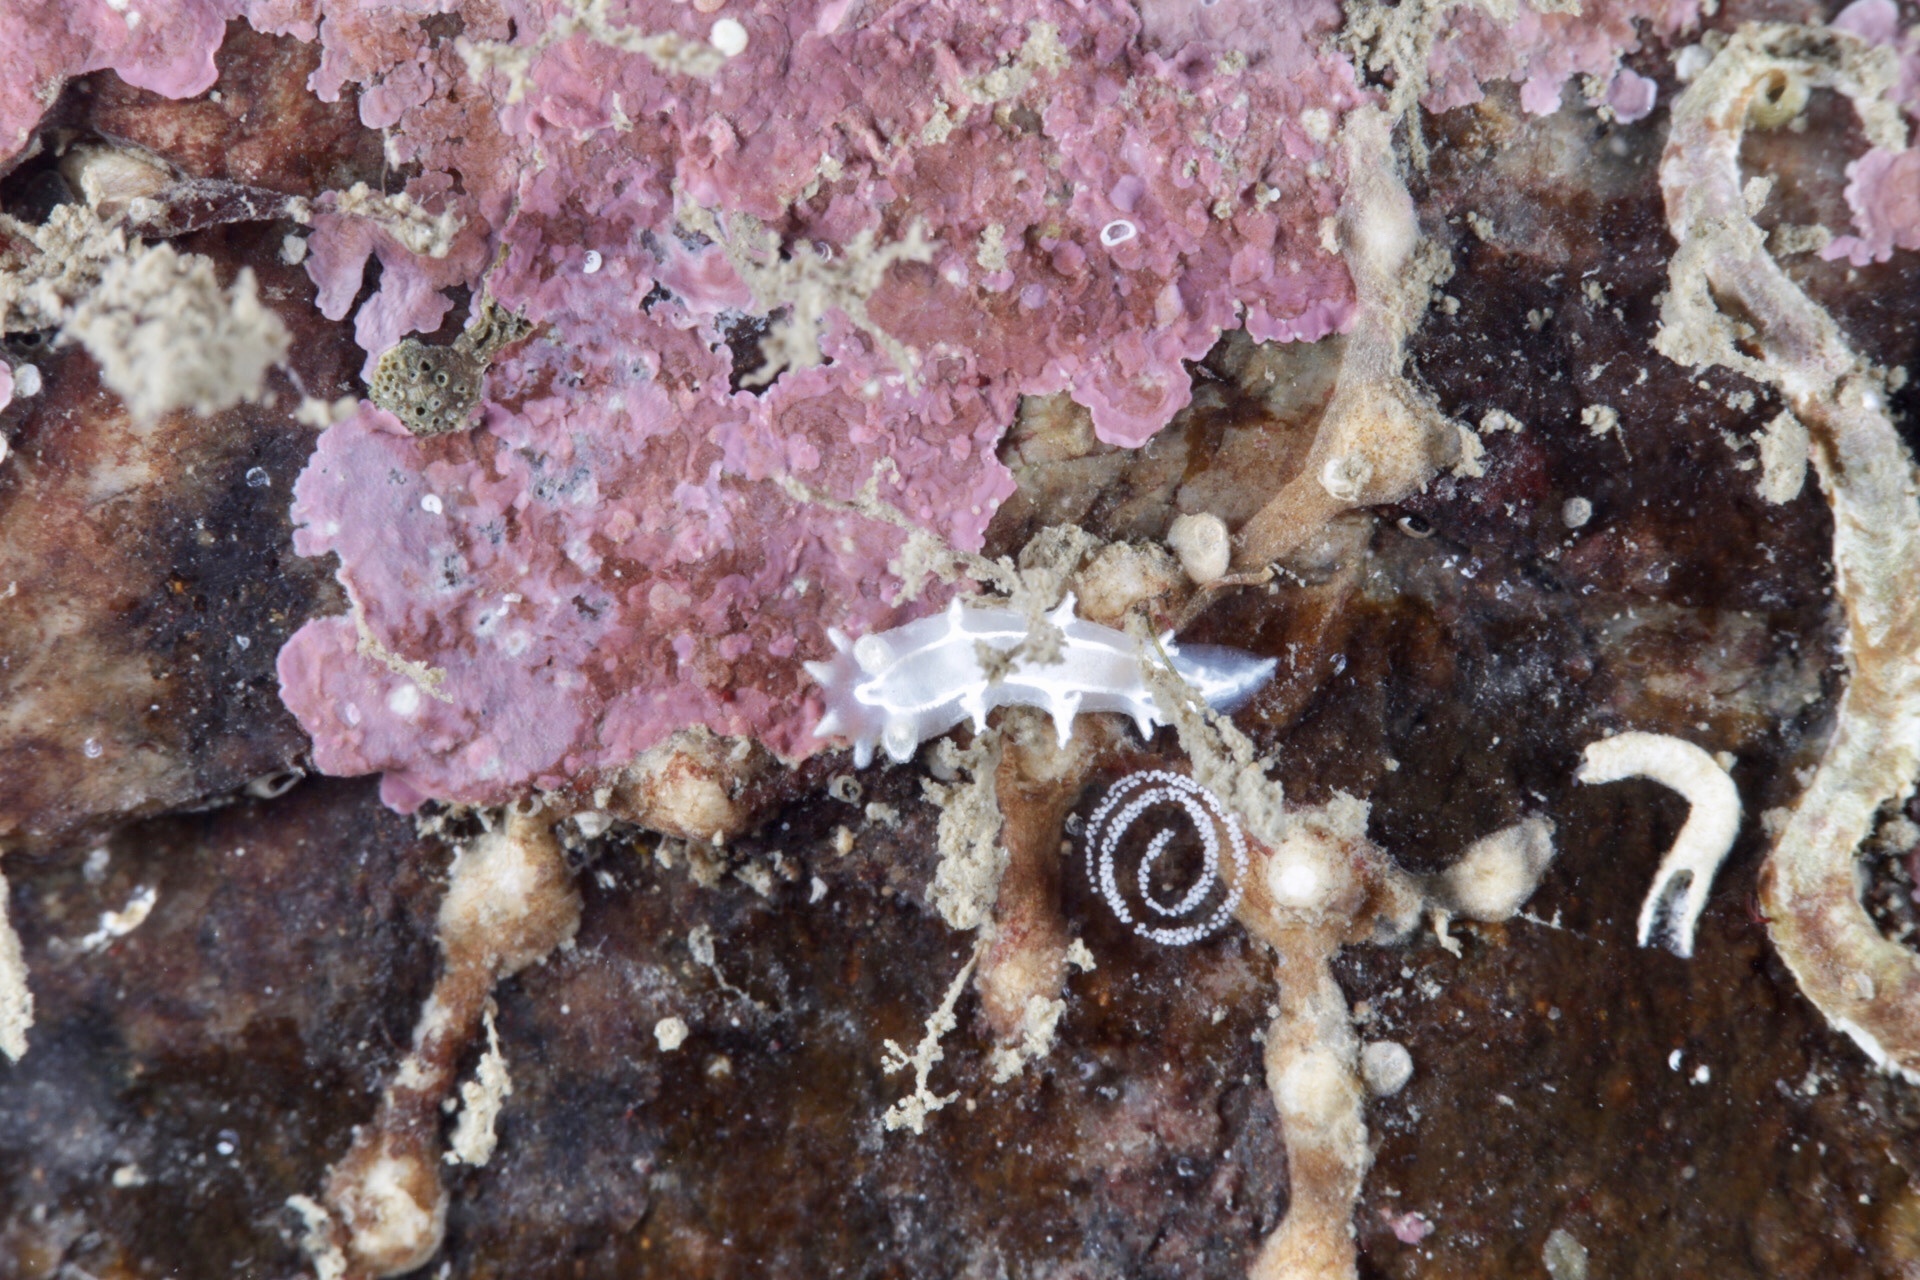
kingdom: Animalia
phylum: Mollusca
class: Gastropoda
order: Nudibranchia
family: Tritoniidae
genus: Duvaucelia
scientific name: Duvaucelia lineata
